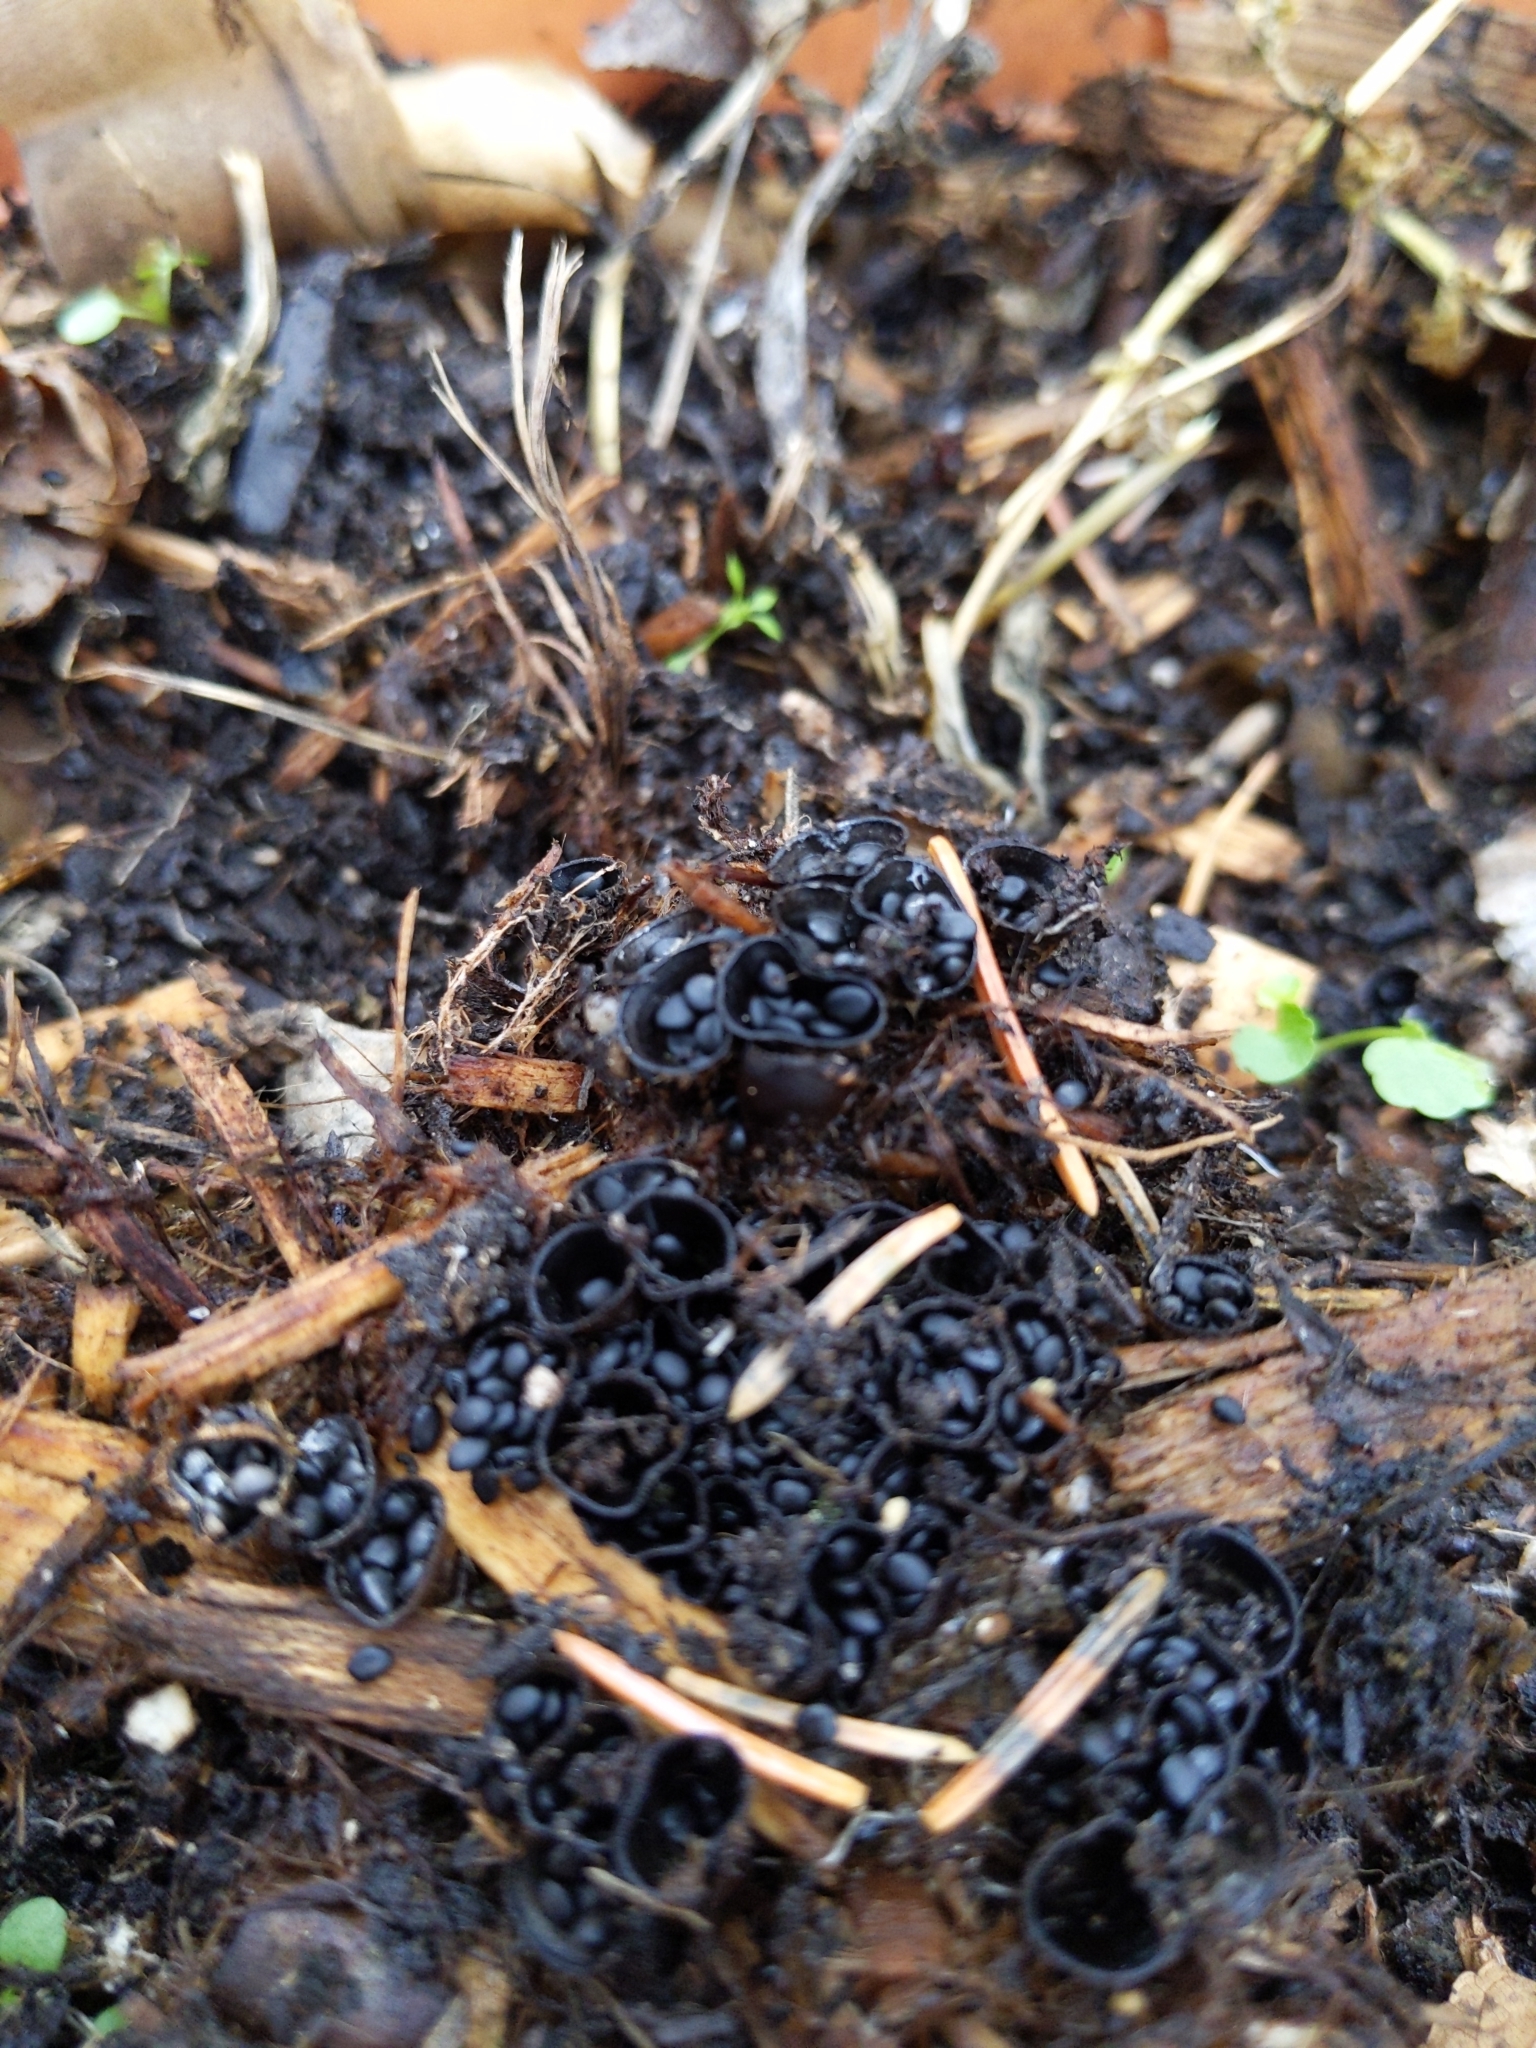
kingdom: Fungi
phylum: Basidiomycota
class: Agaricomycetes
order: Agaricales
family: Agaricaceae
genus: Cyathus
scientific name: Cyathus stercoreus
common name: Dung bird's nest
